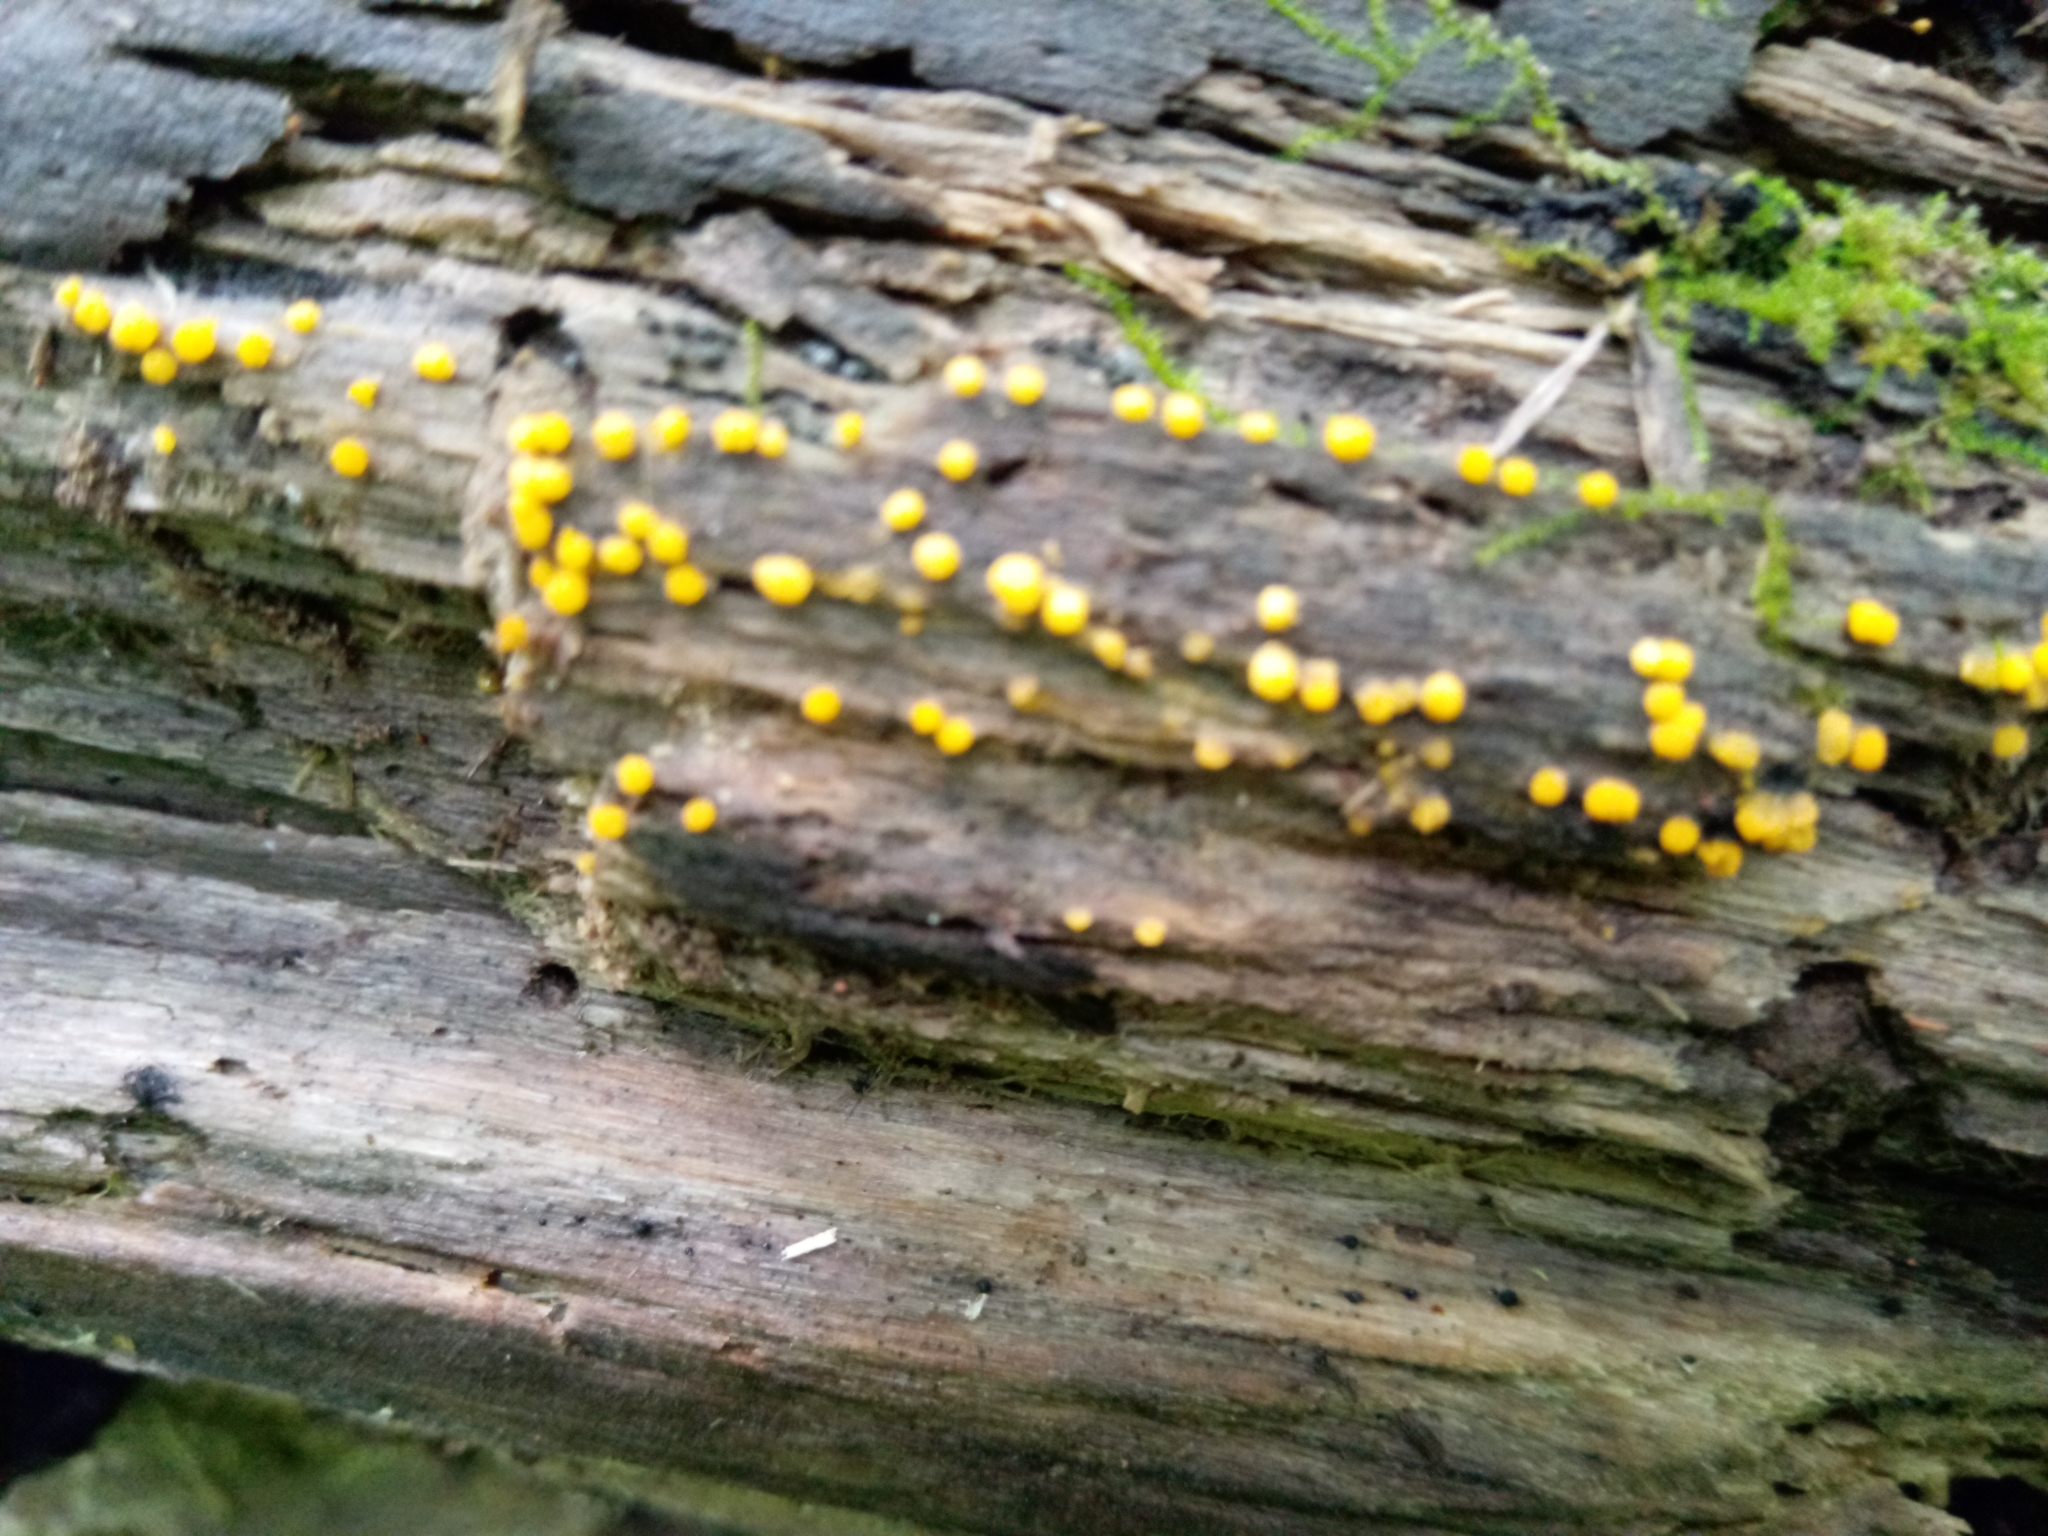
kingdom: Fungi
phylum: Ascomycota
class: Pezizomycetes
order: Pezizales
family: Pyronemataceae
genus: Sphaerosporium
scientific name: Sphaerosporium lignatile
